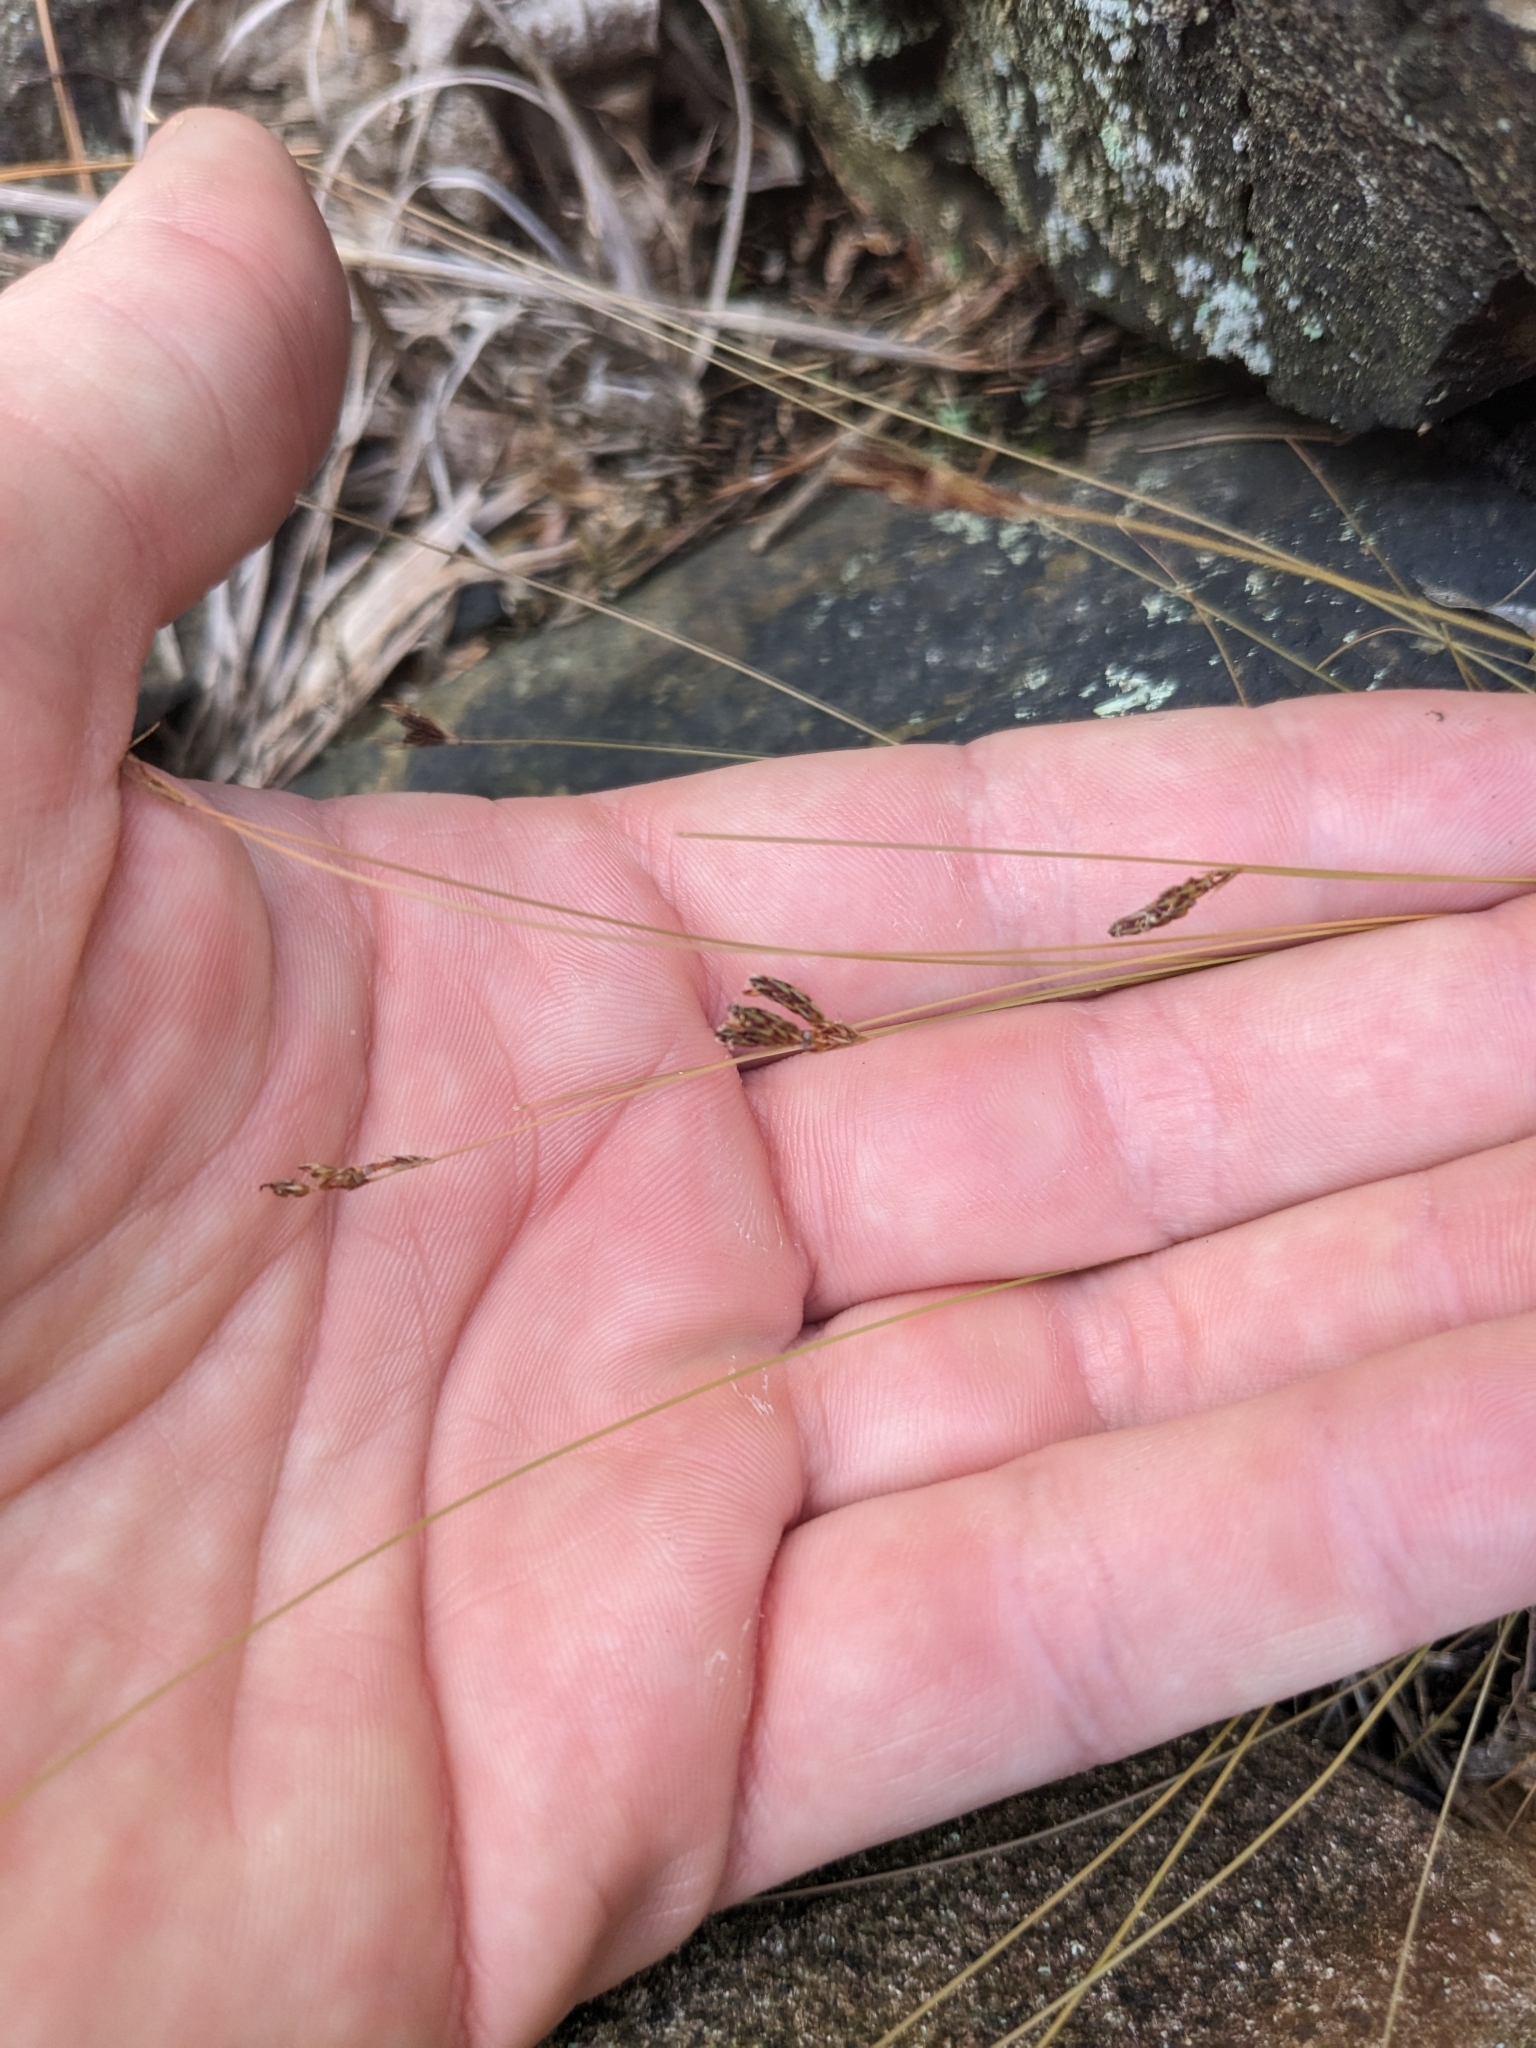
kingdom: Plantae
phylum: Tracheophyta
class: Liliopsida
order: Poales
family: Cyperaceae
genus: Bulbostylis
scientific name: Bulbostylis capillaris
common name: Densetuft hairsedge
